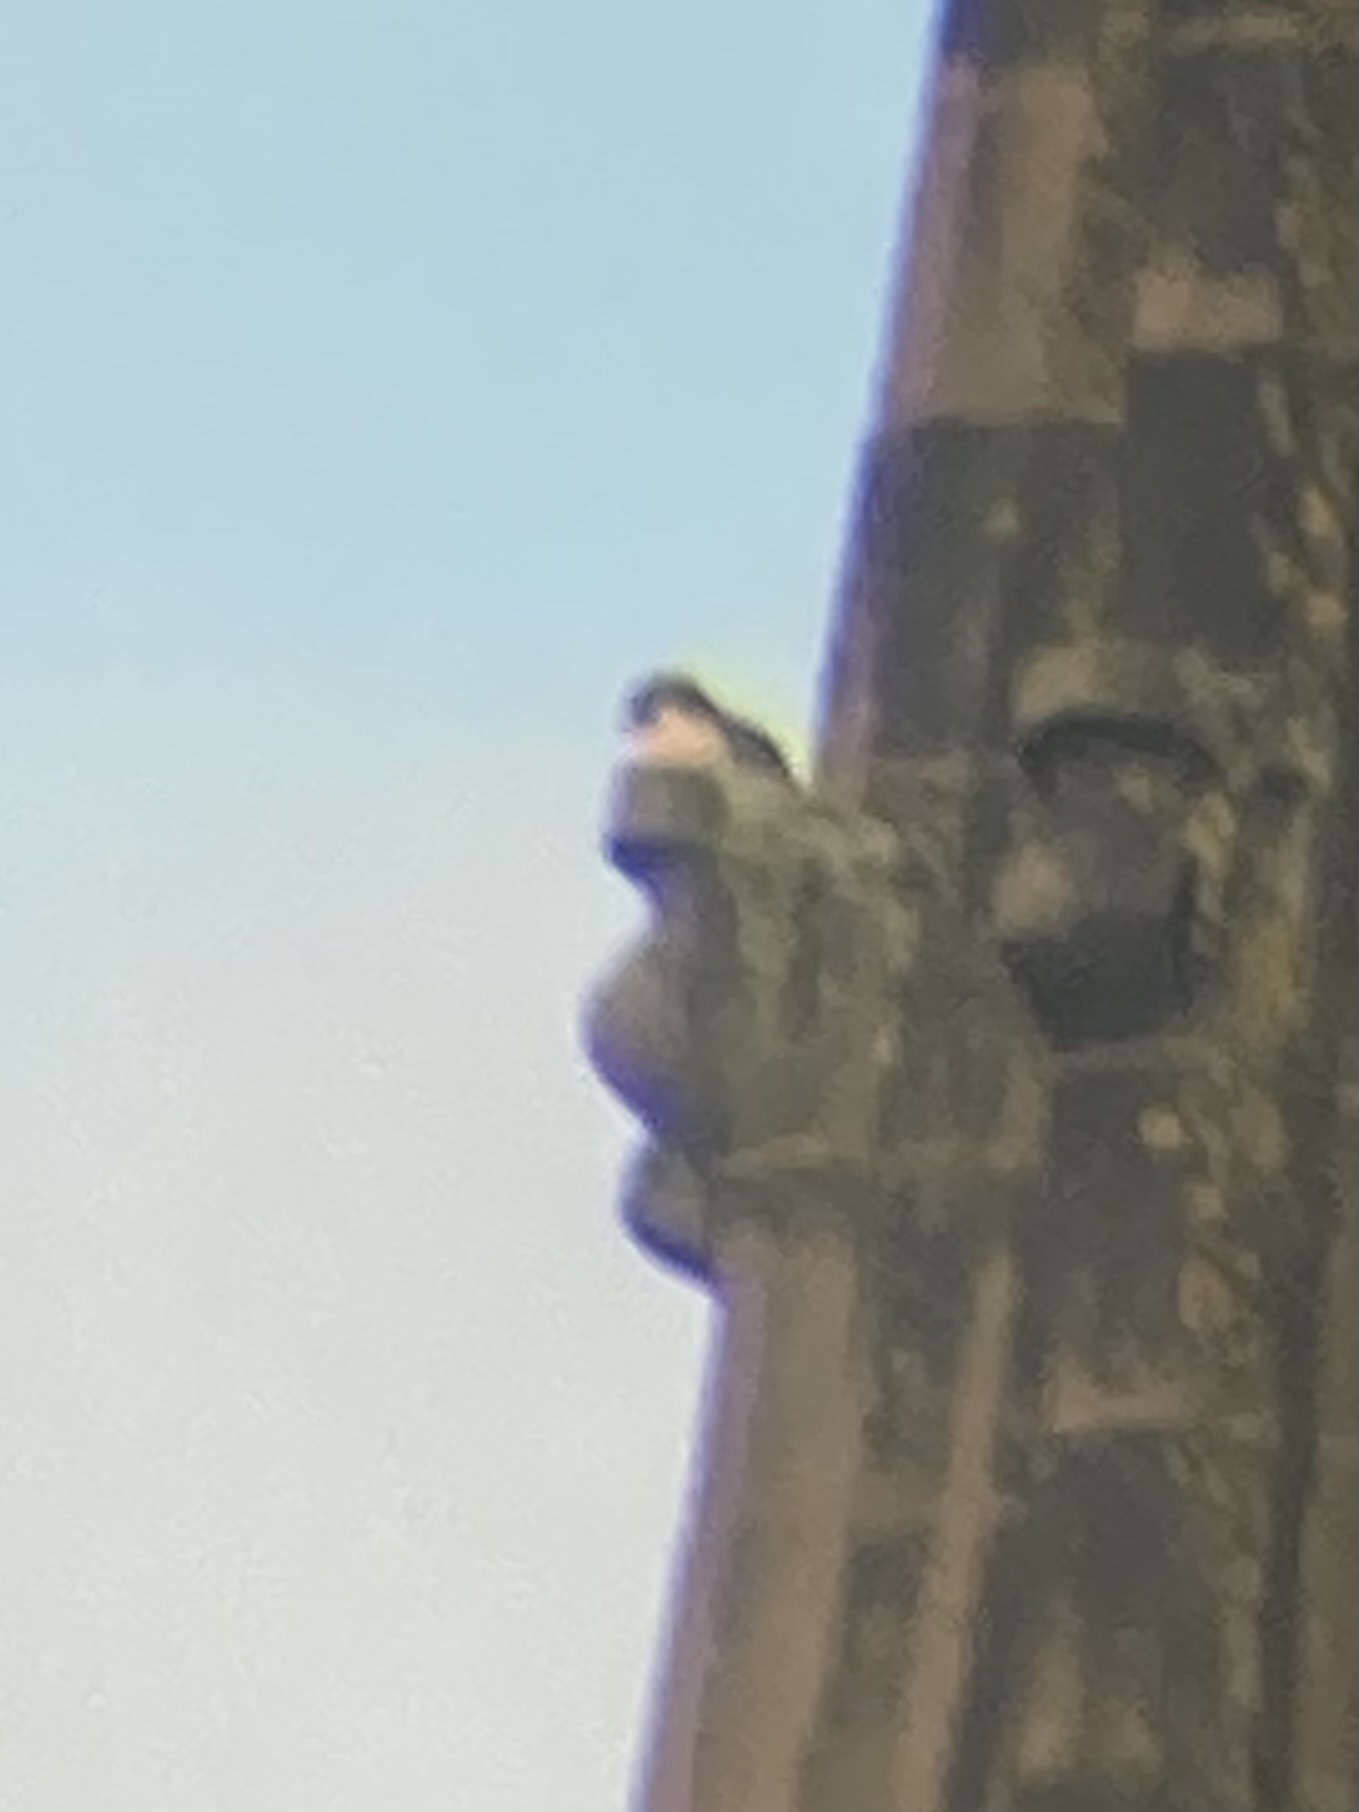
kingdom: Animalia
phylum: Chordata
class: Aves
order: Falconiformes
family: Falconidae
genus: Falco
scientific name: Falco peregrinus
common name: Peregrine falcon
